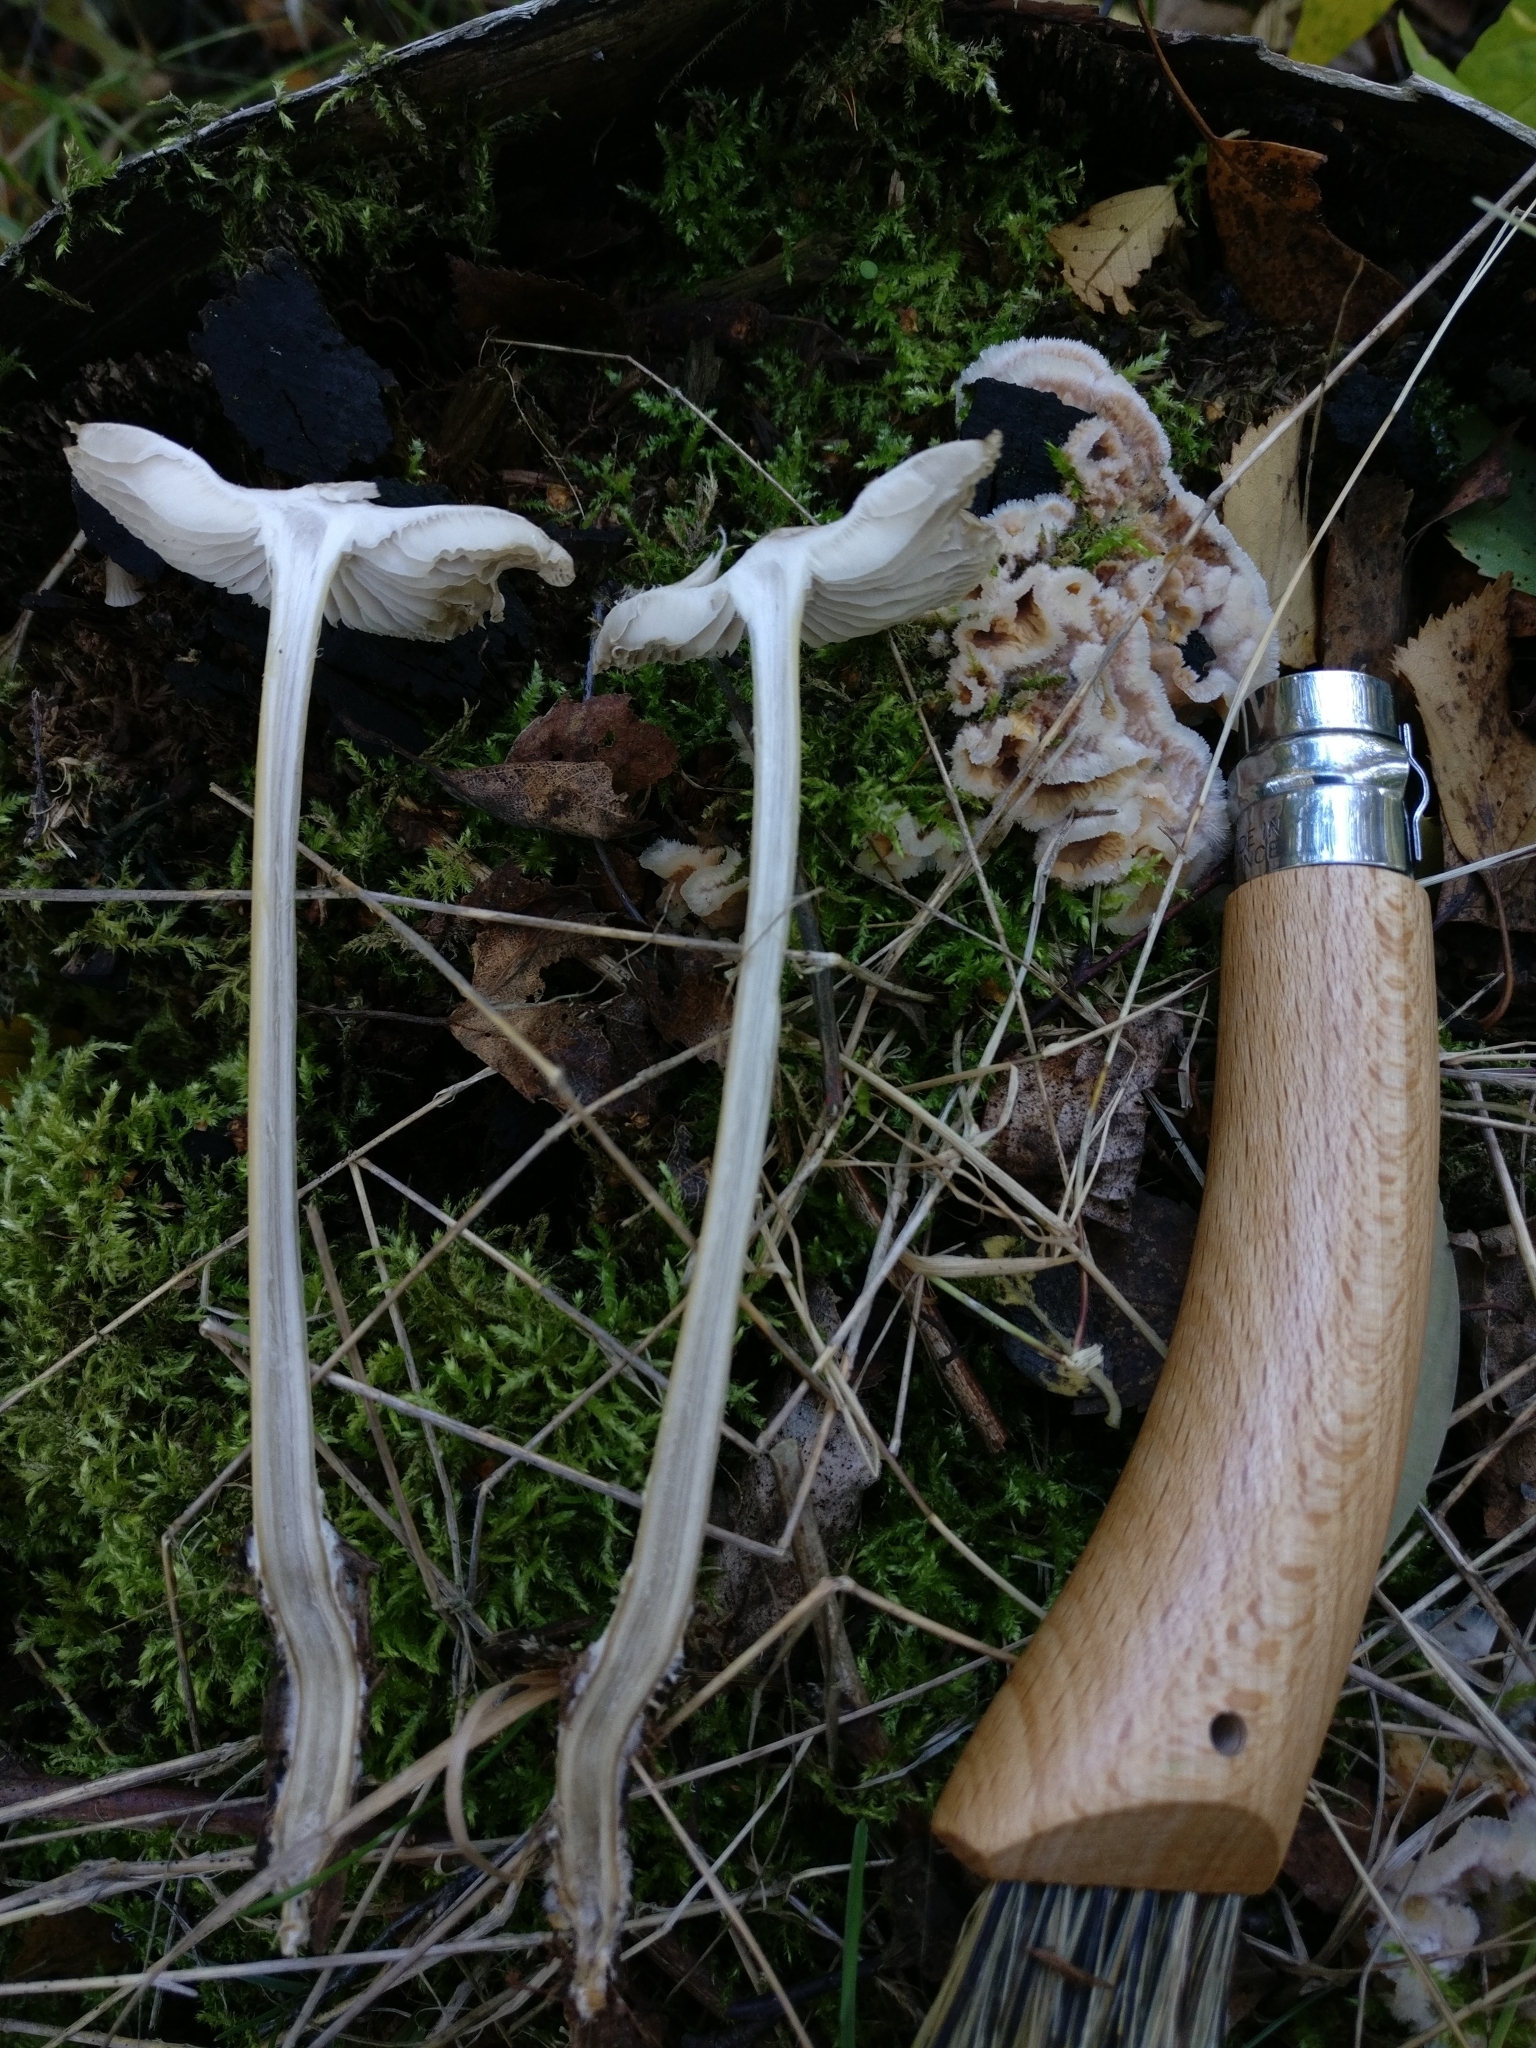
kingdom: Fungi
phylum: Basidiomycota
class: Agaricomycetes
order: Agaricales
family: Mycenaceae
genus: Mycena
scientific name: Mycena galericulata
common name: Bonnet mycena
